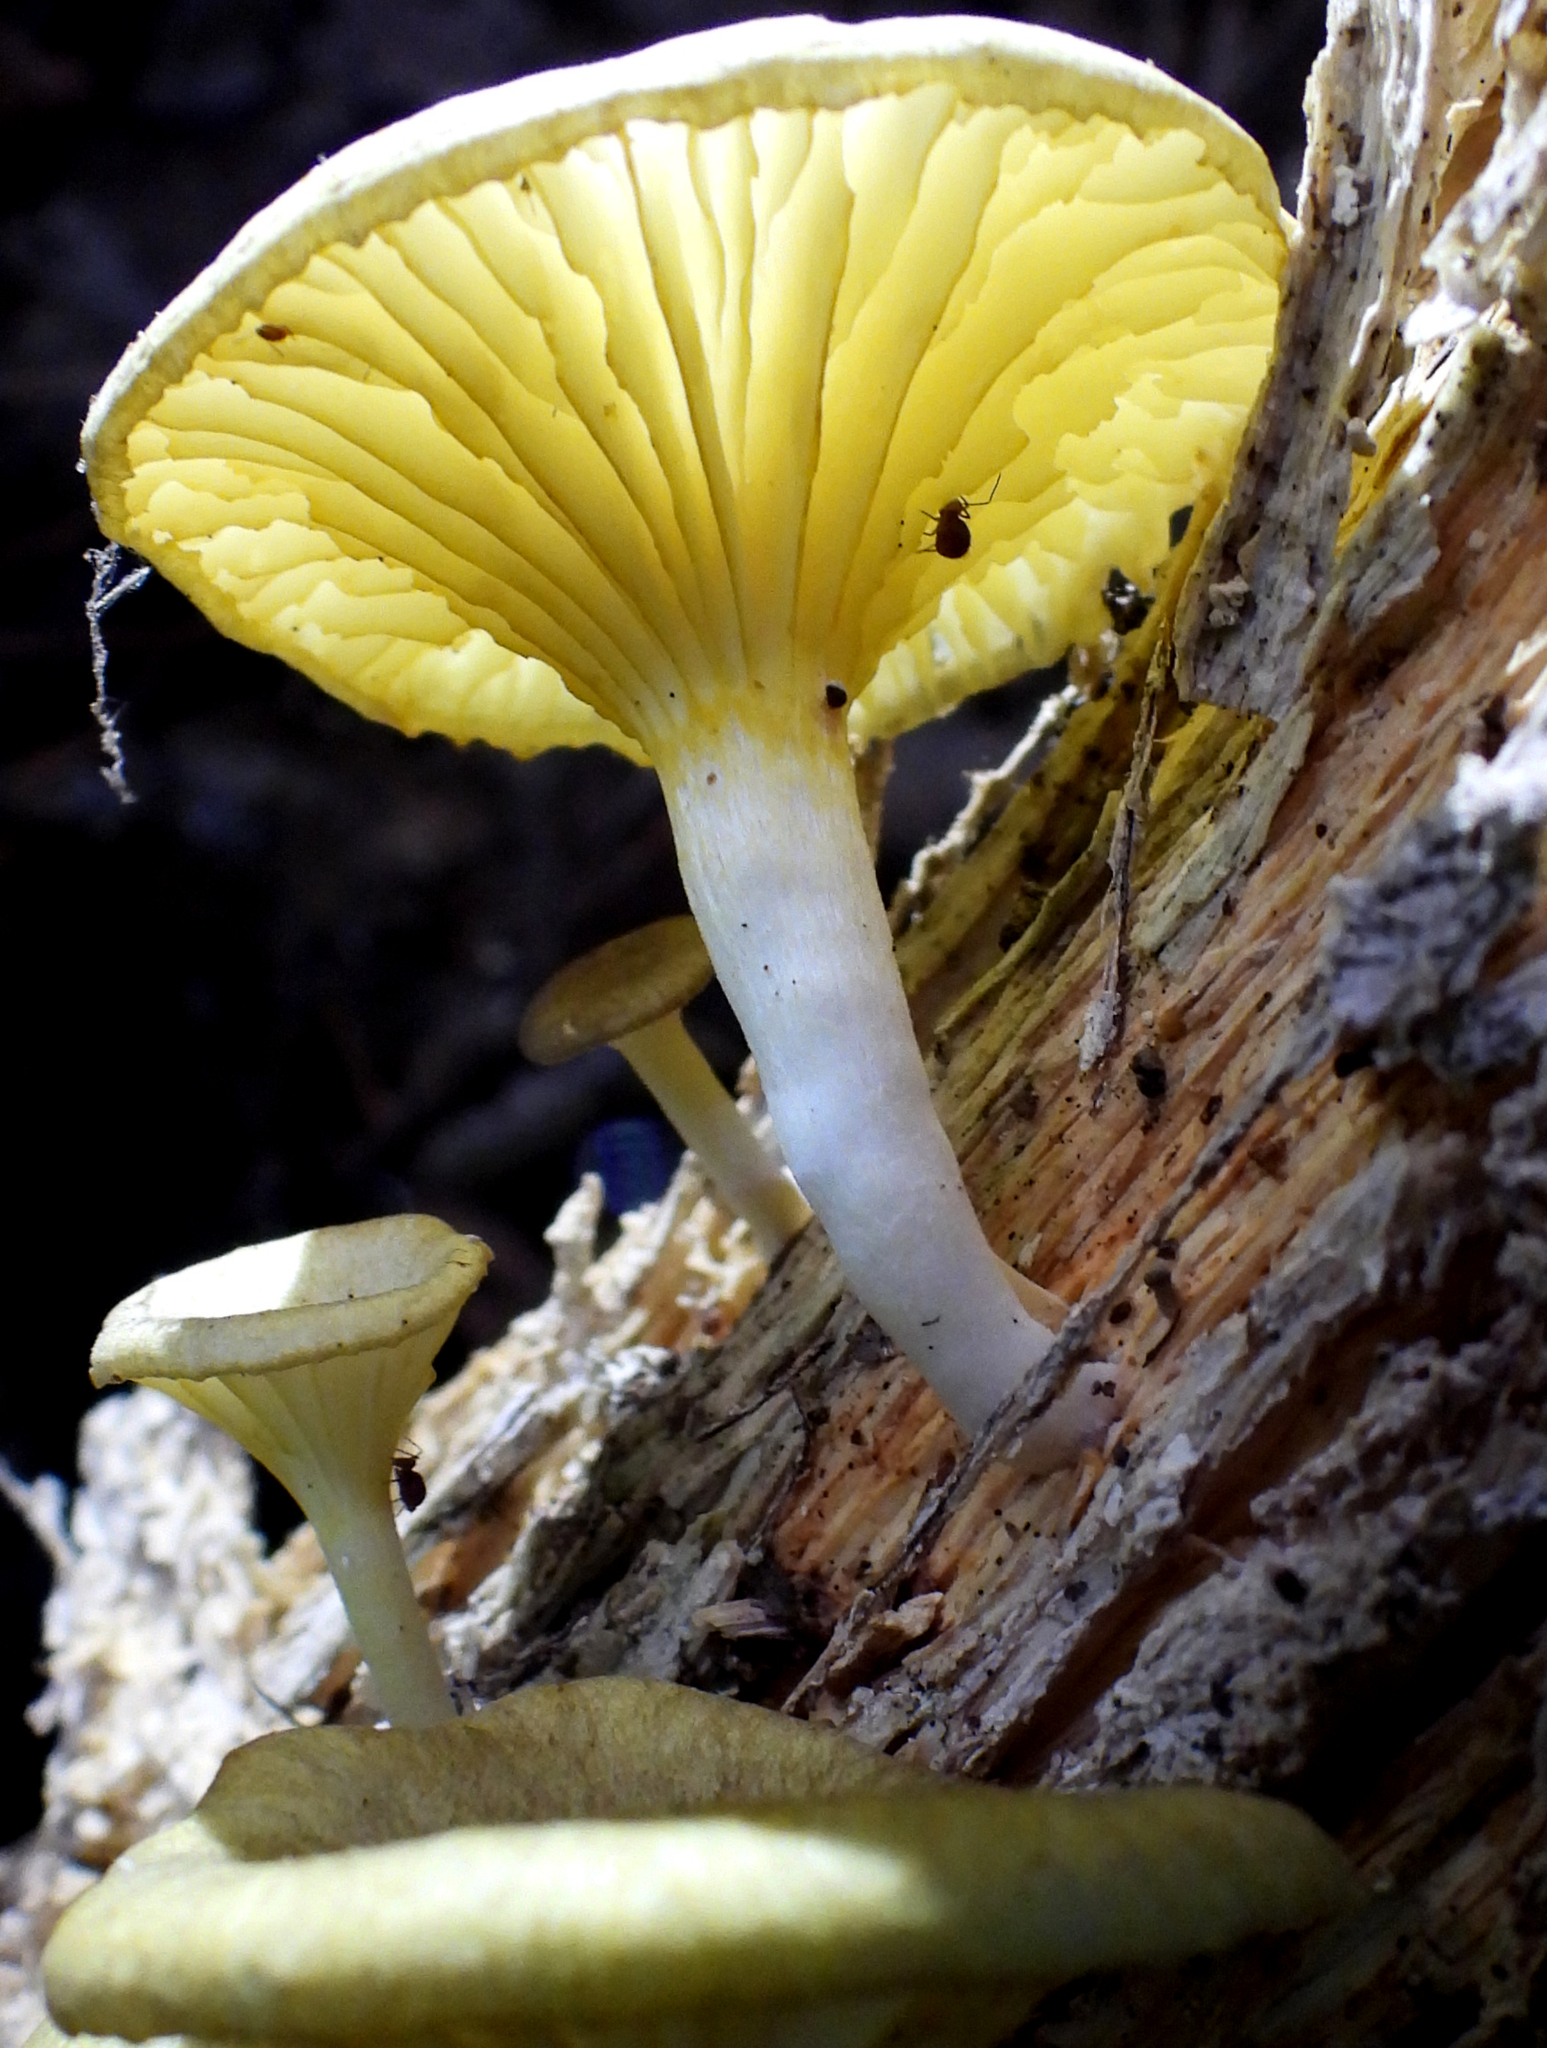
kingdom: Fungi
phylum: Basidiomycota
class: Agaricomycetes
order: Agaricales
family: Marasmiaceae
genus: Gerronema
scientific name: Gerronema strombodes
